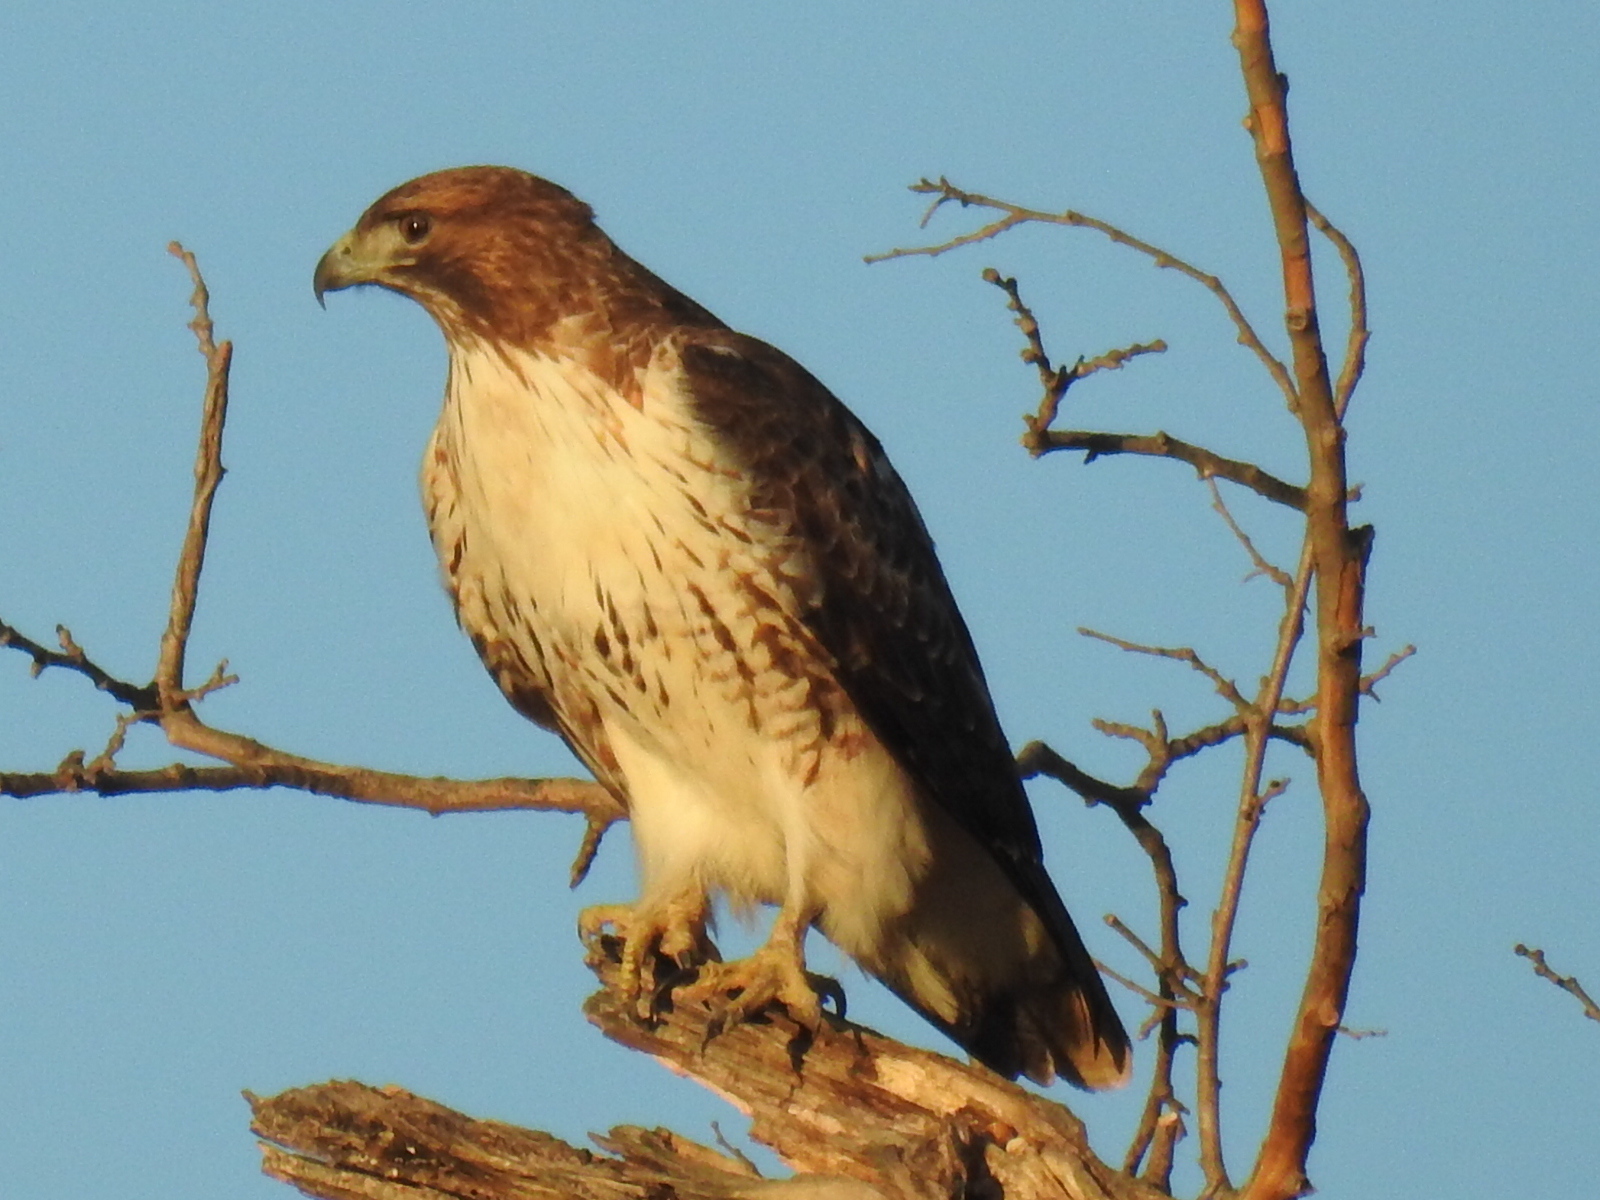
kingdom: Animalia
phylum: Chordata
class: Aves
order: Accipitriformes
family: Accipitridae
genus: Buteo
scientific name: Buteo jamaicensis
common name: Red-tailed hawk
